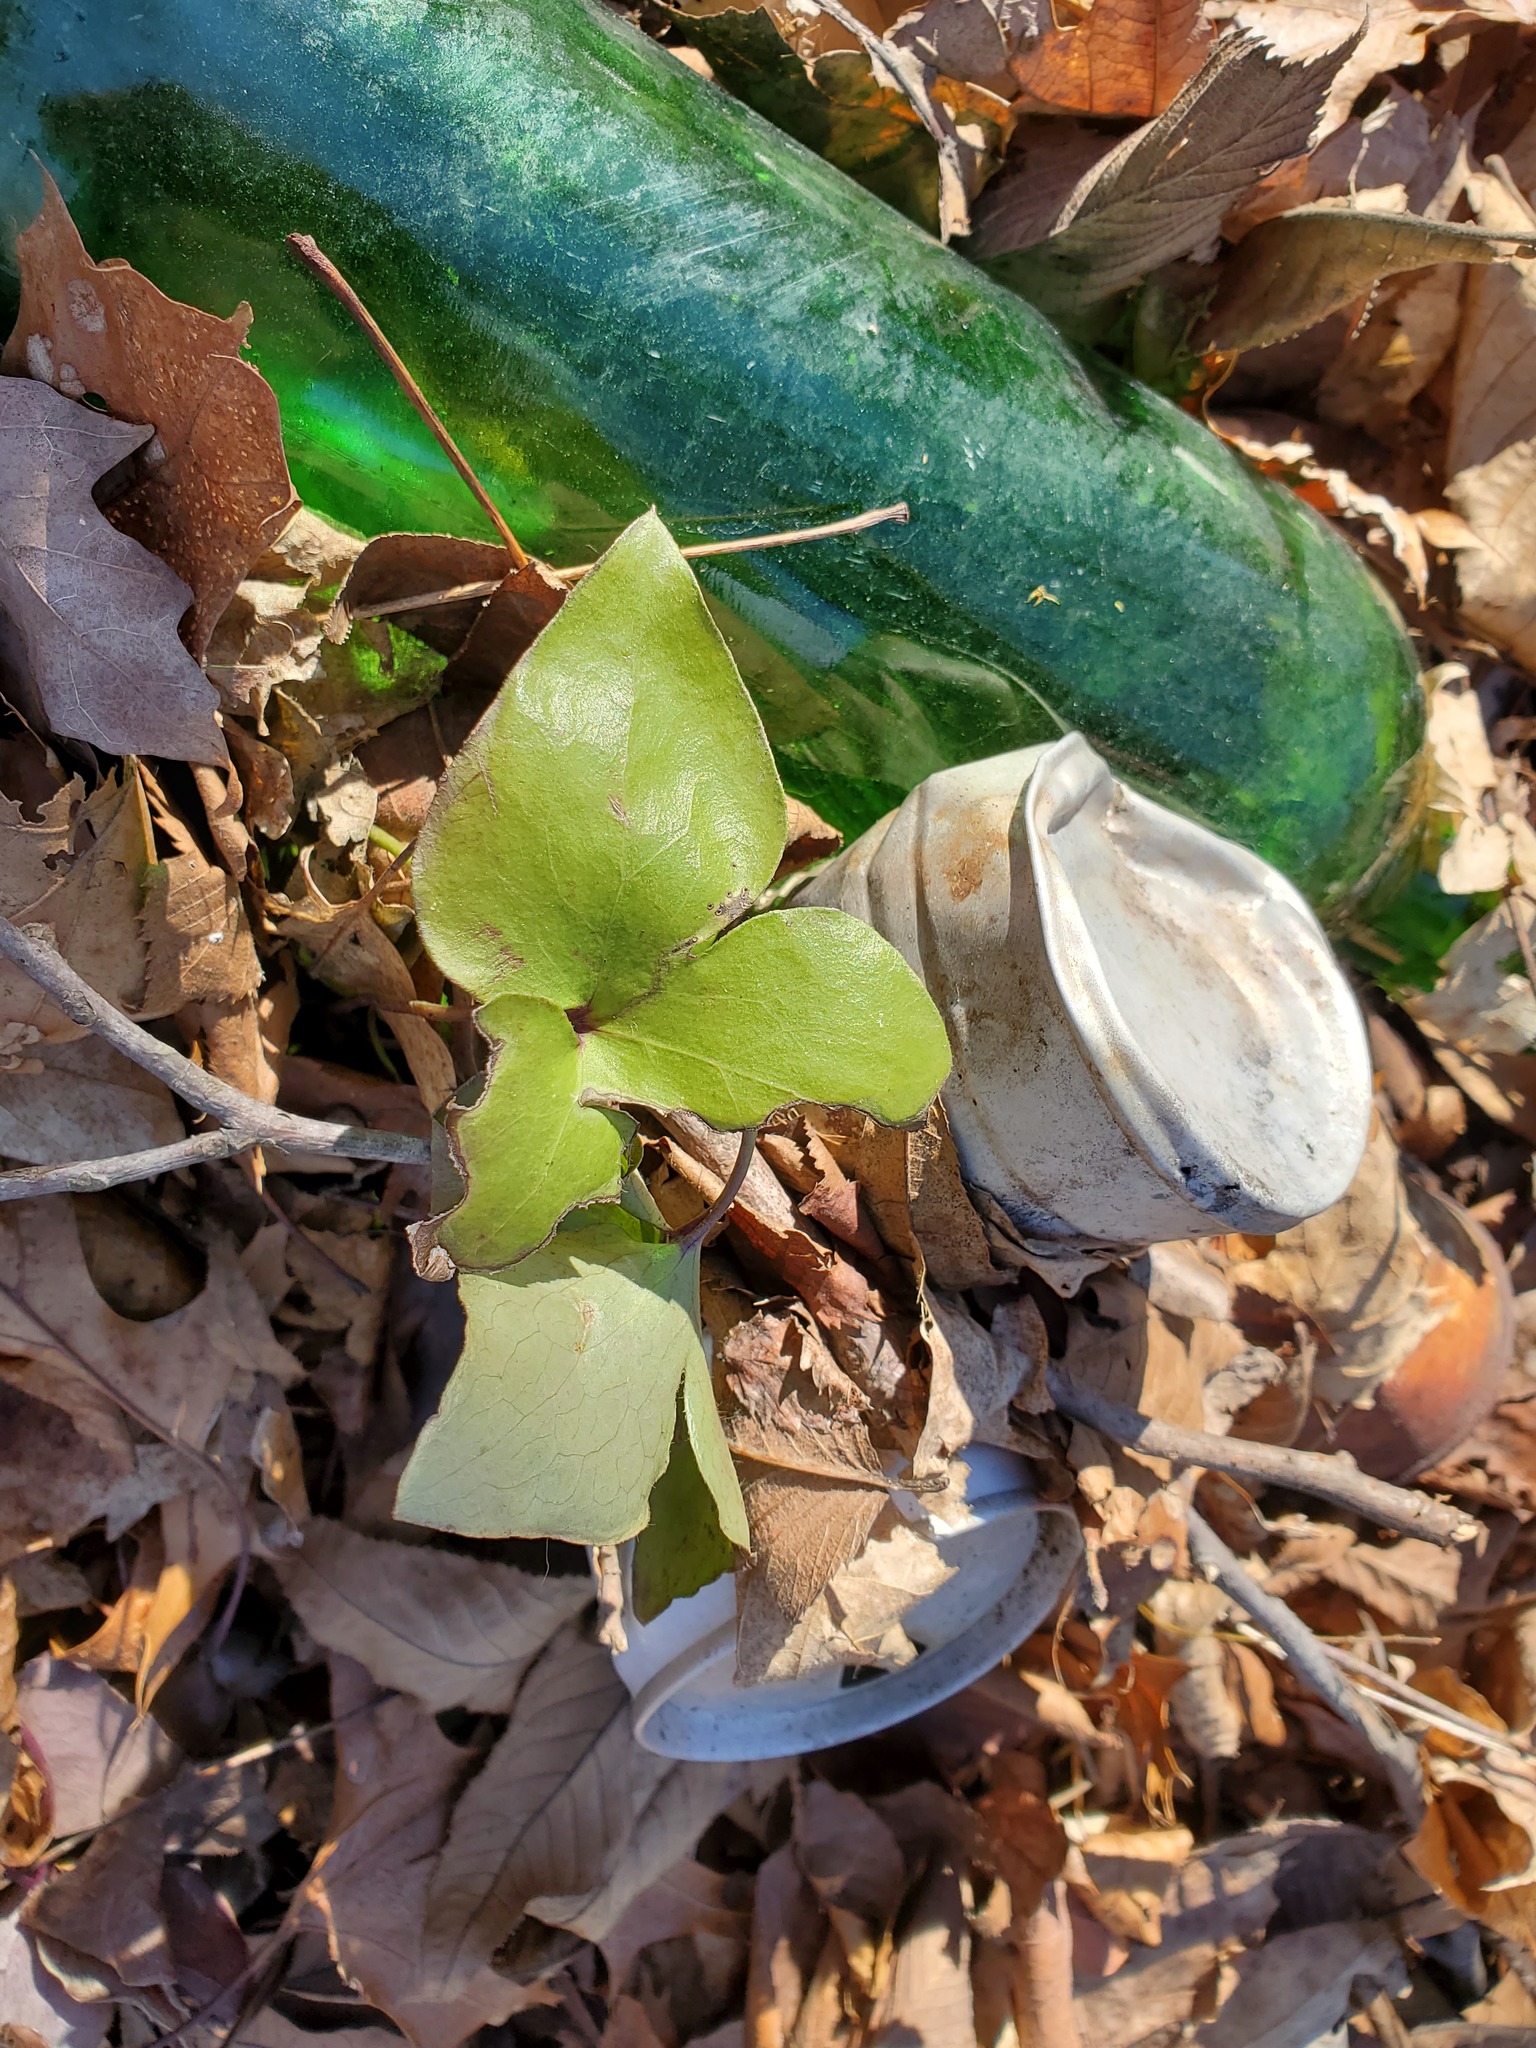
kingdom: Plantae
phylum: Tracheophyta
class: Magnoliopsida
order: Ranunculales
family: Ranunculaceae
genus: Hepatica
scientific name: Hepatica acutiloba
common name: Sharp-lobed hepatica
